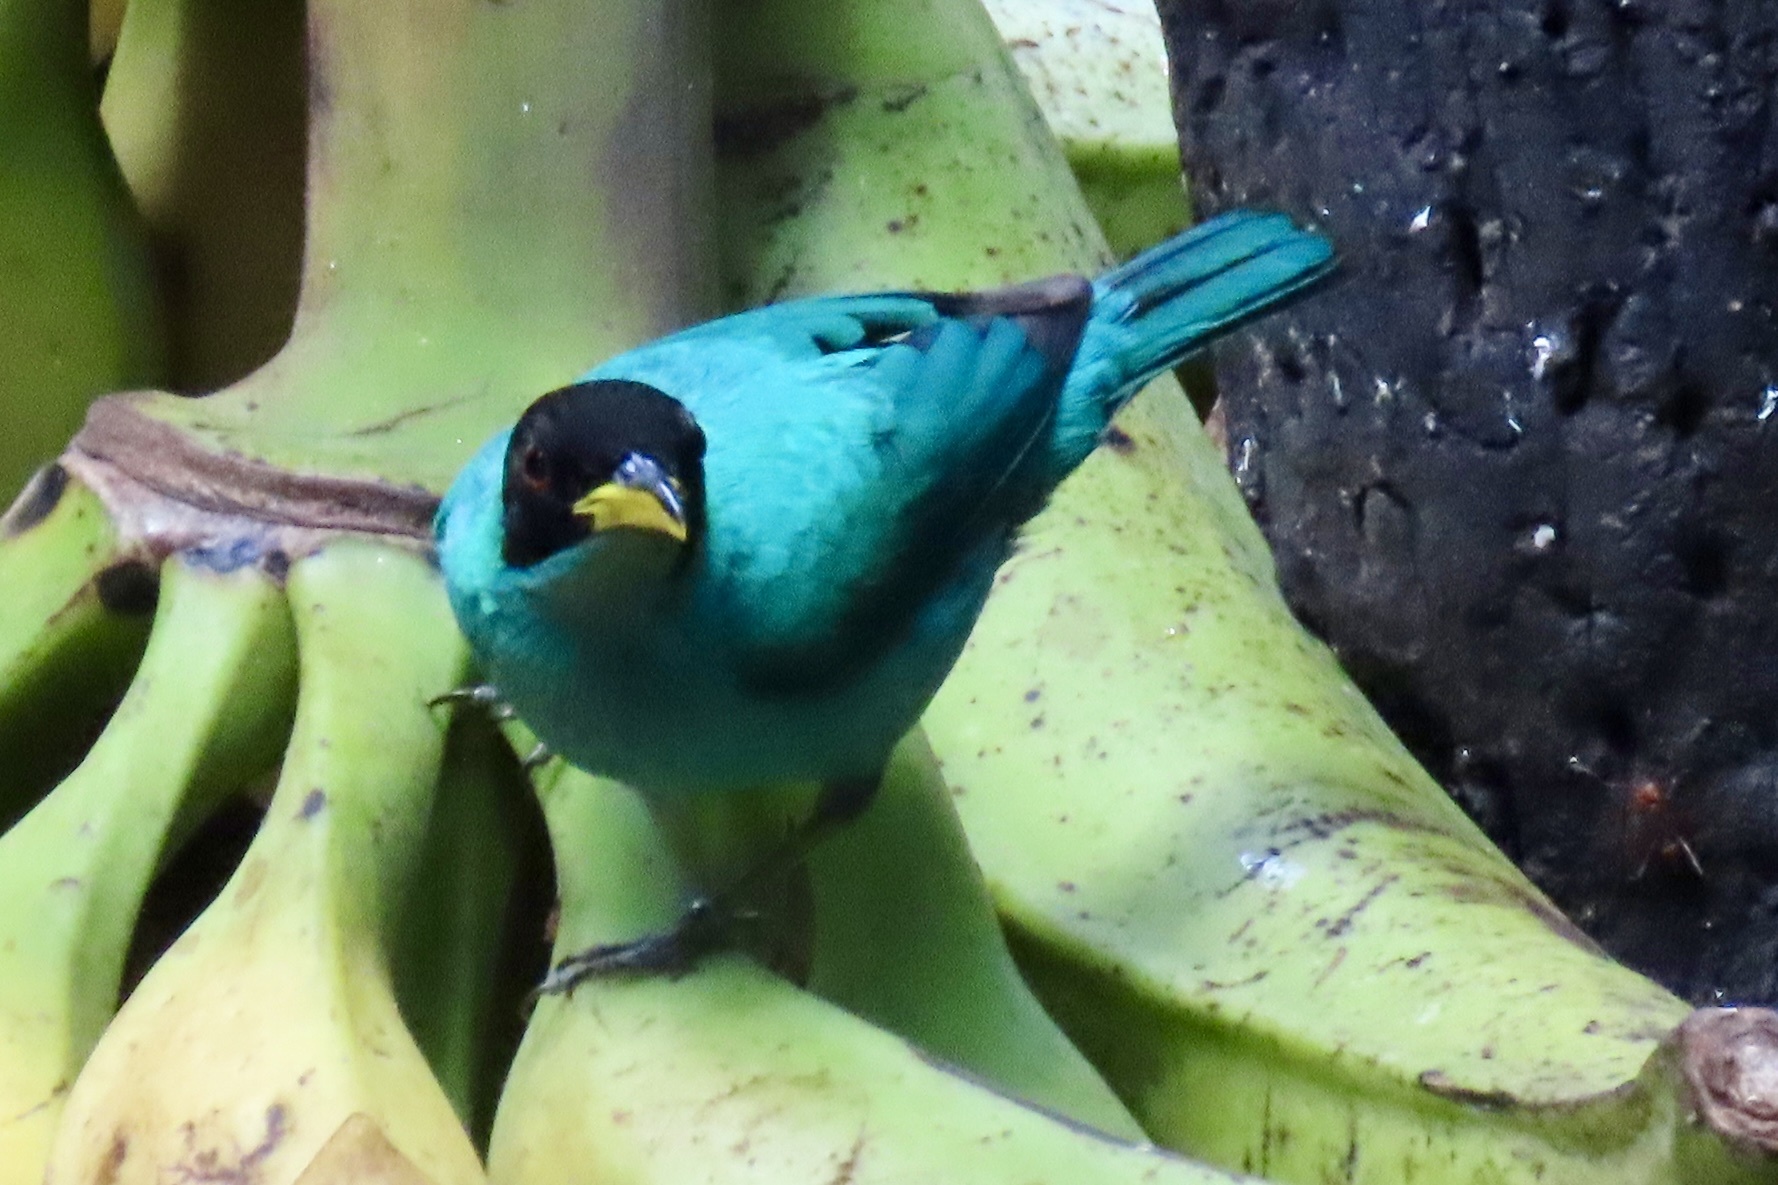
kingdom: Animalia
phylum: Chordata
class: Aves
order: Passeriformes
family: Thraupidae
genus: Chlorophanes
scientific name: Chlorophanes spiza
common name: Green honeycreeper
